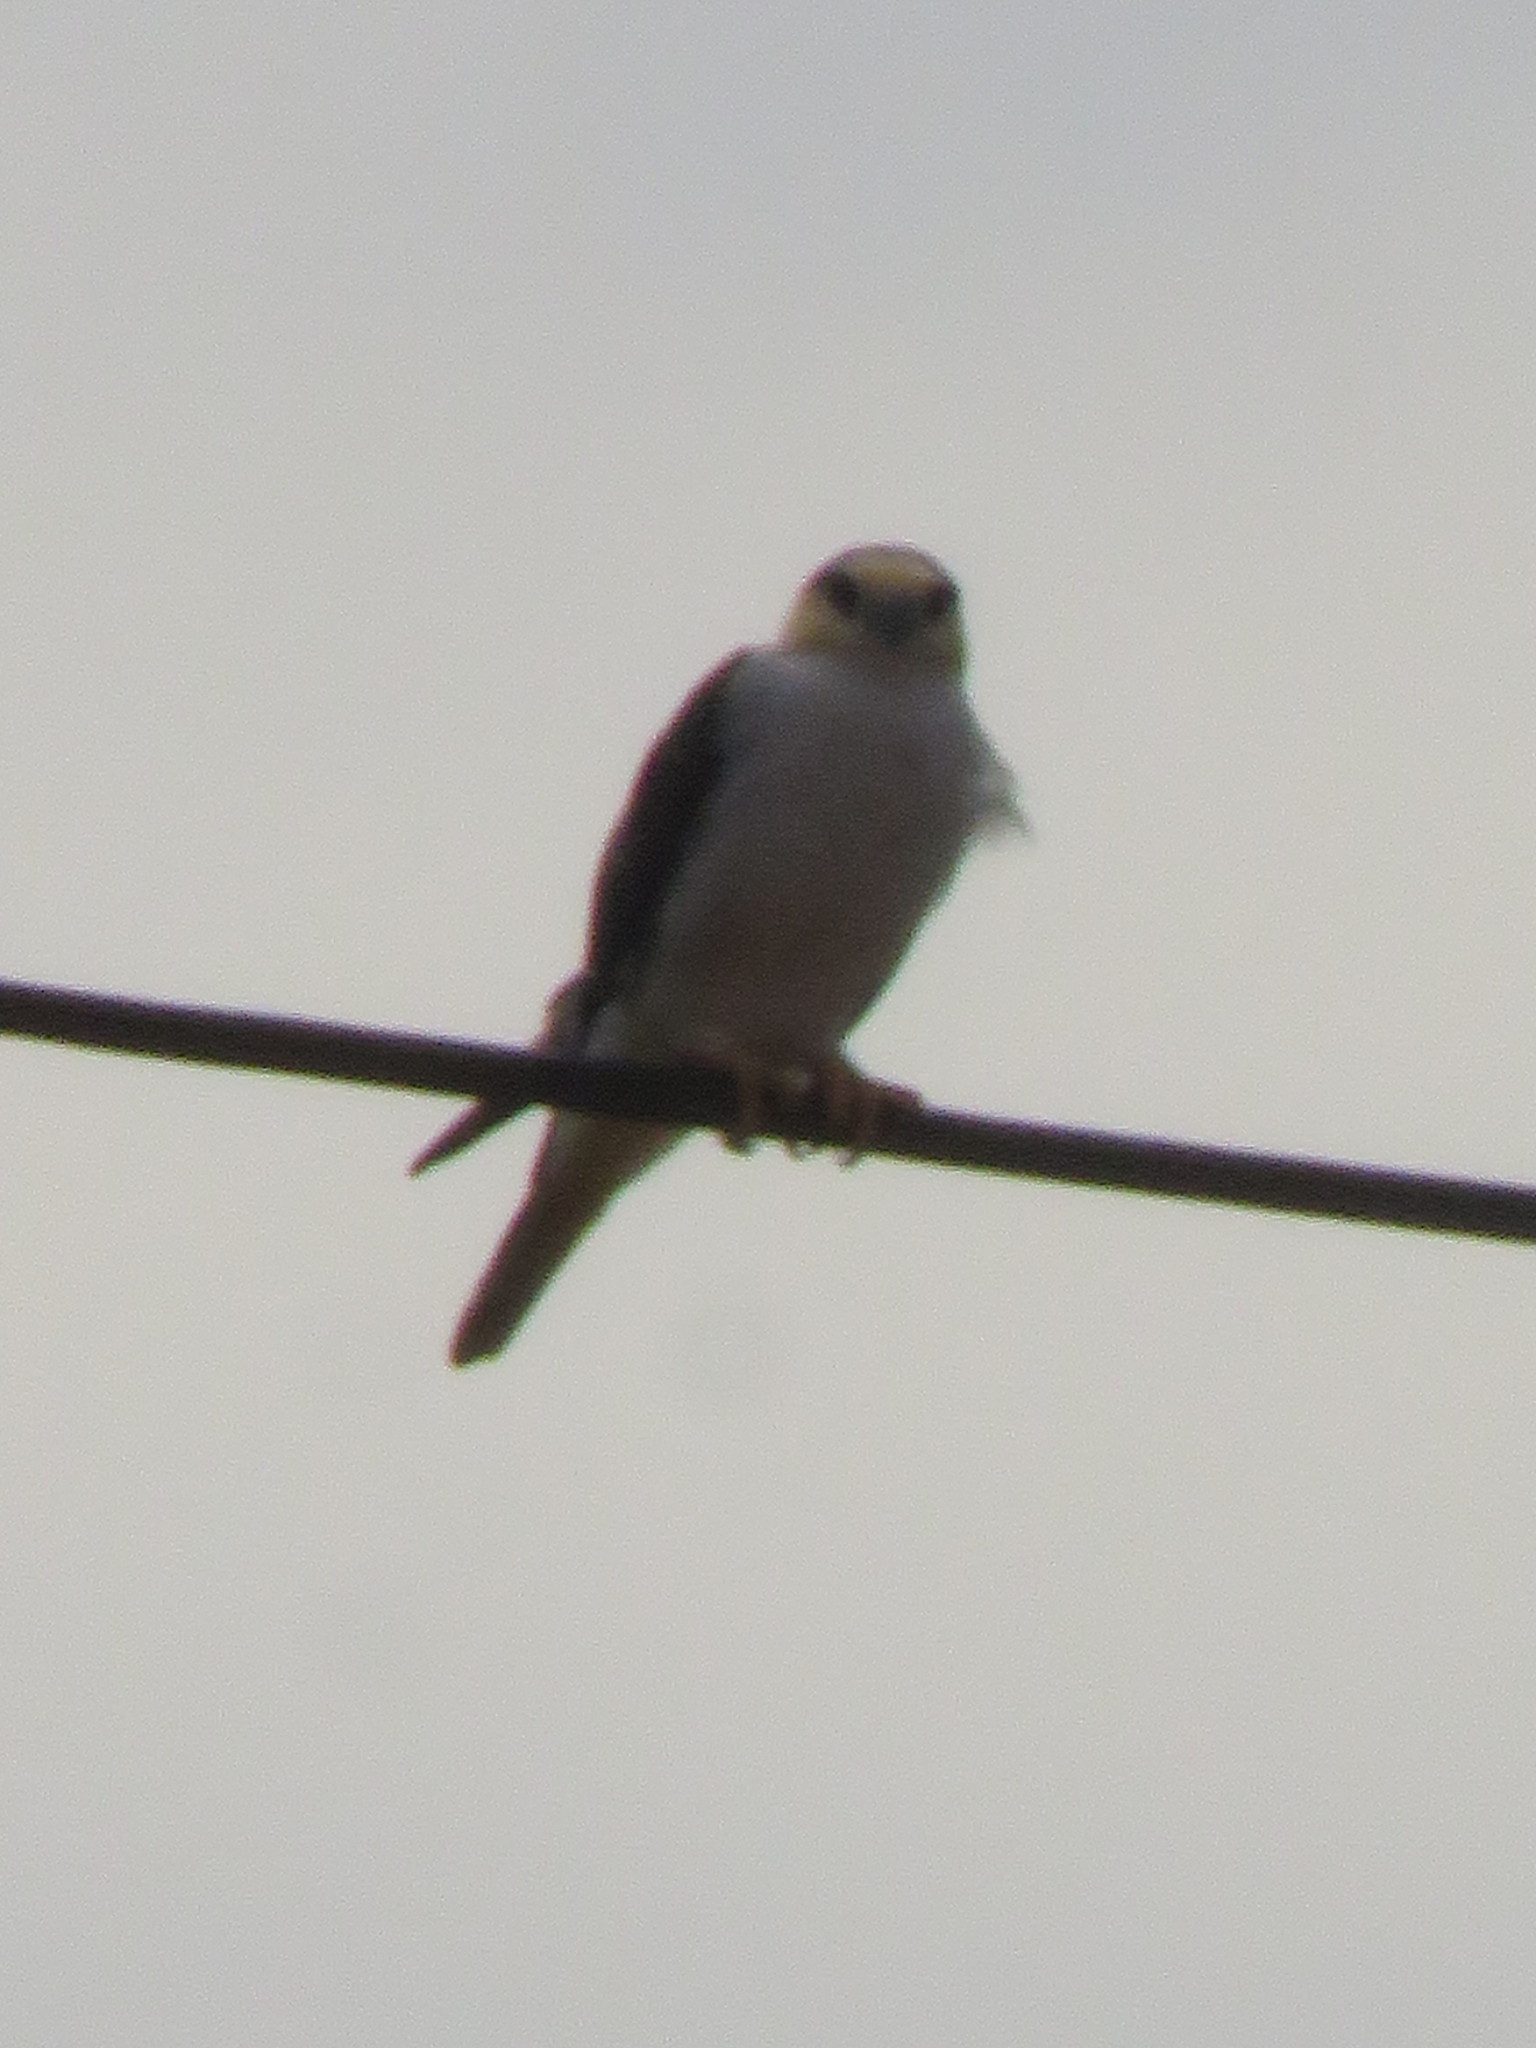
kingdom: Animalia
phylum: Chordata
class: Aves
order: Accipitriformes
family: Accipitridae
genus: Gampsonyx
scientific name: Gampsonyx swainsonii
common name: Pearl kite
